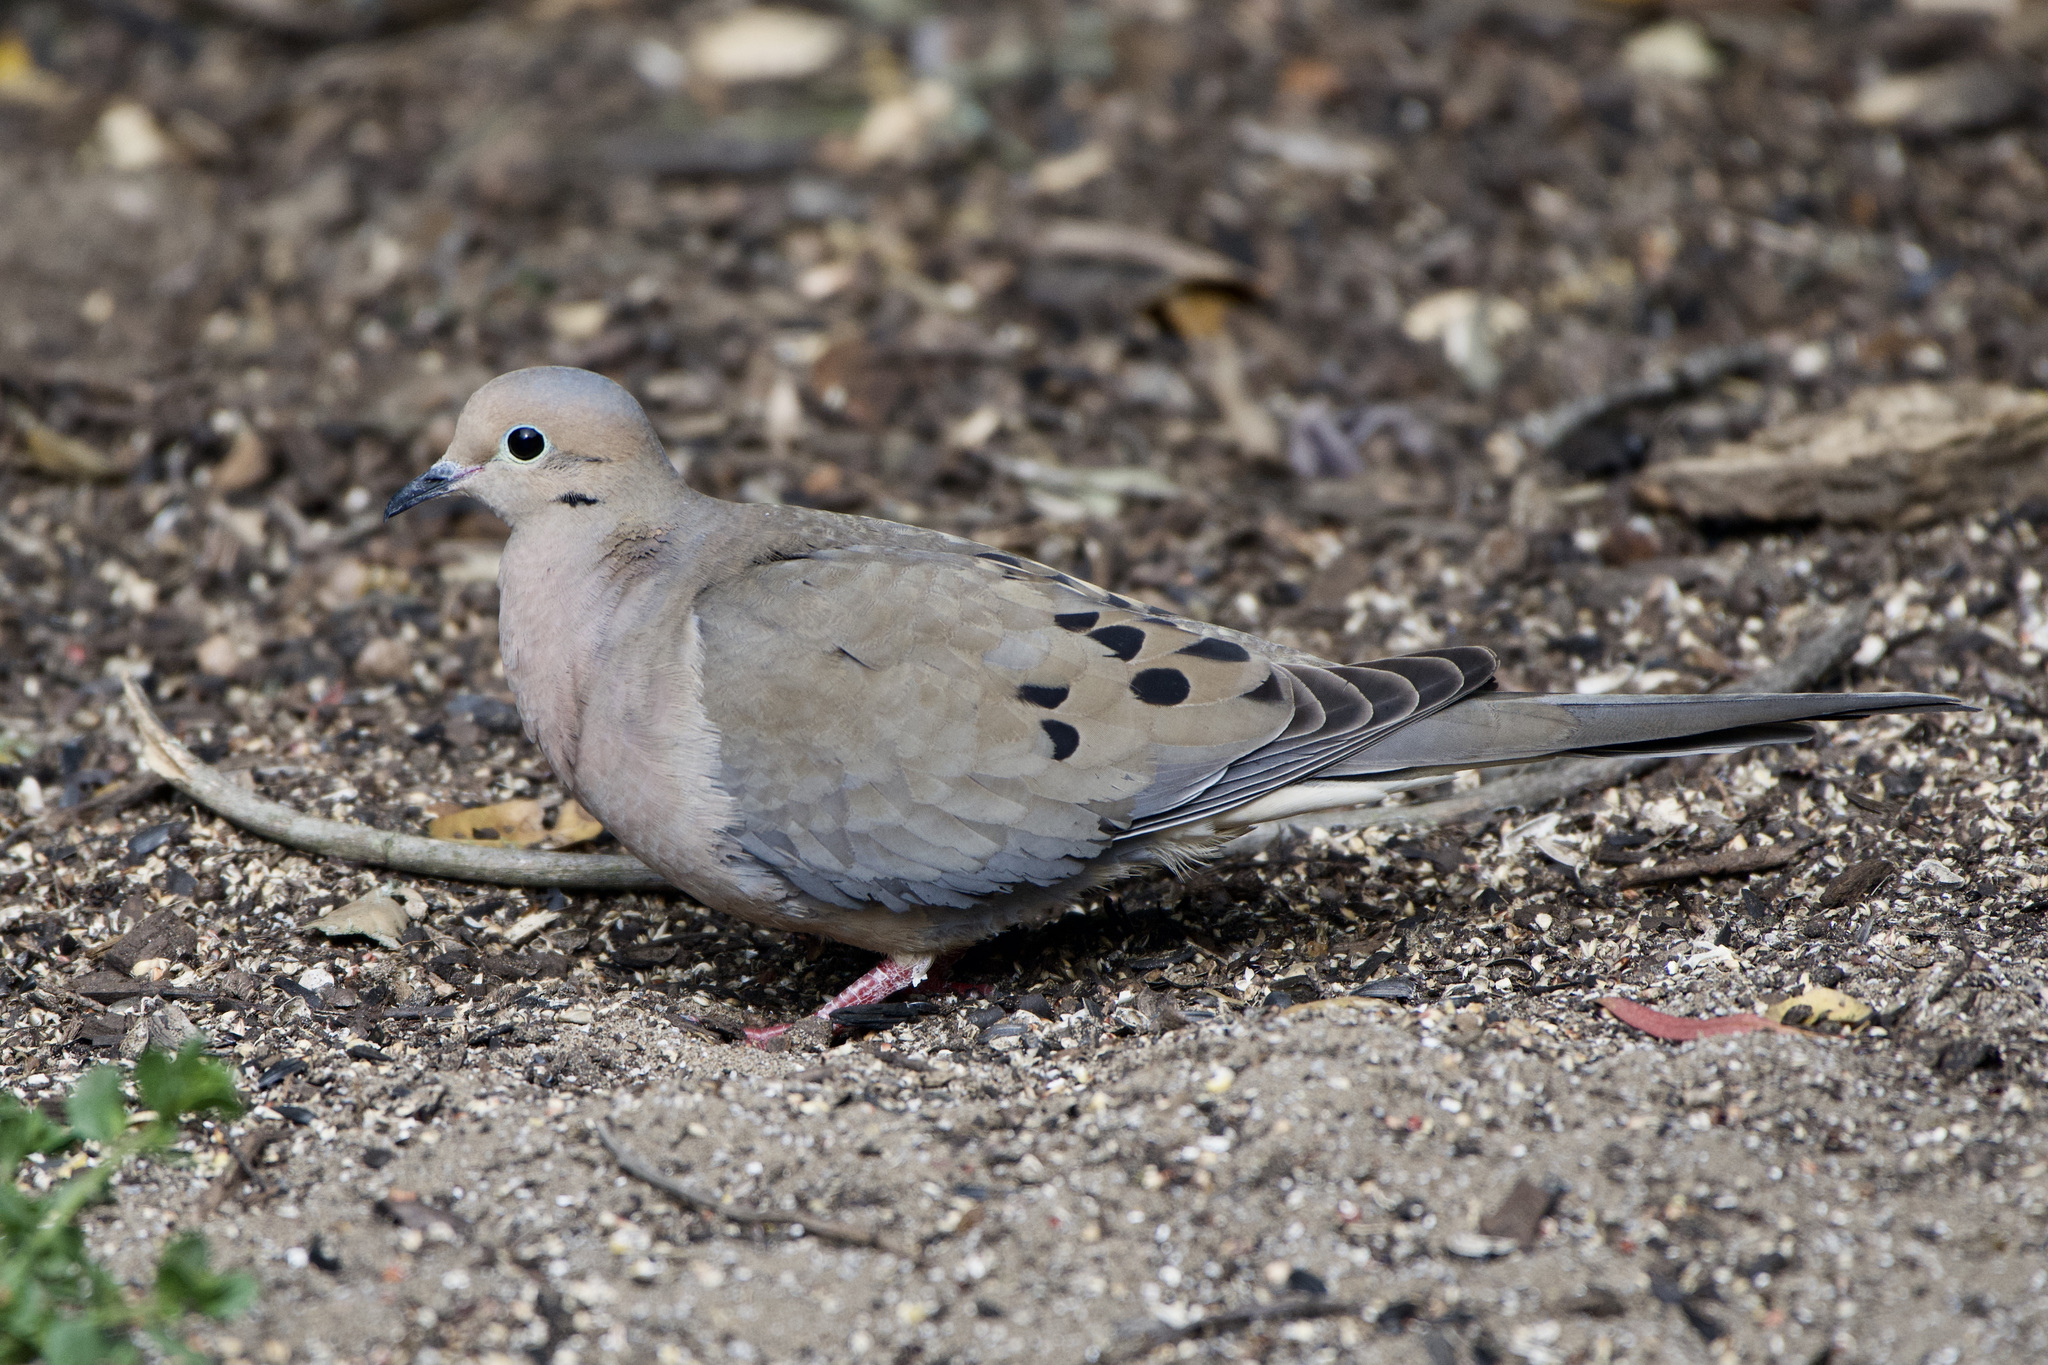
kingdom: Animalia
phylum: Chordata
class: Aves
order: Columbiformes
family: Columbidae
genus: Zenaida
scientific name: Zenaida macroura
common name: Mourning dove
